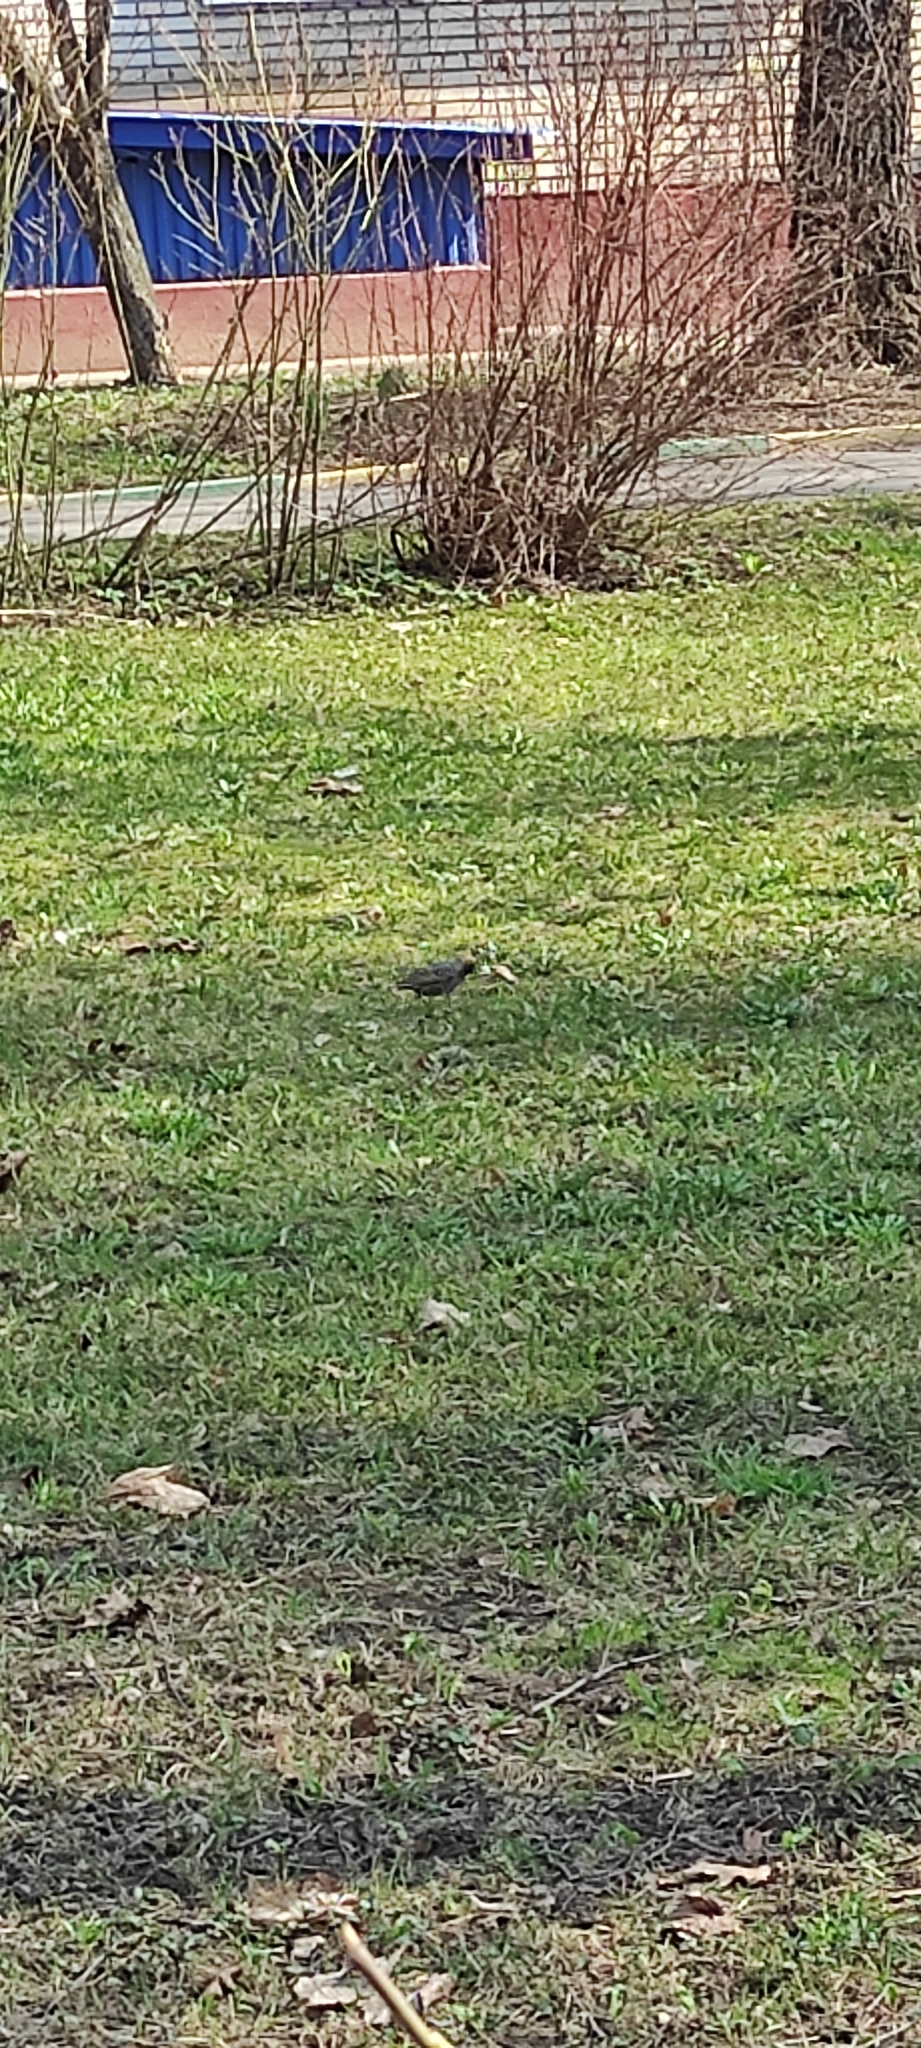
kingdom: Animalia
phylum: Chordata
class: Aves
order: Passeriformes
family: Sturnidae
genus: Sturnus
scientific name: Sturnus vulgaris
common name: Common starling
